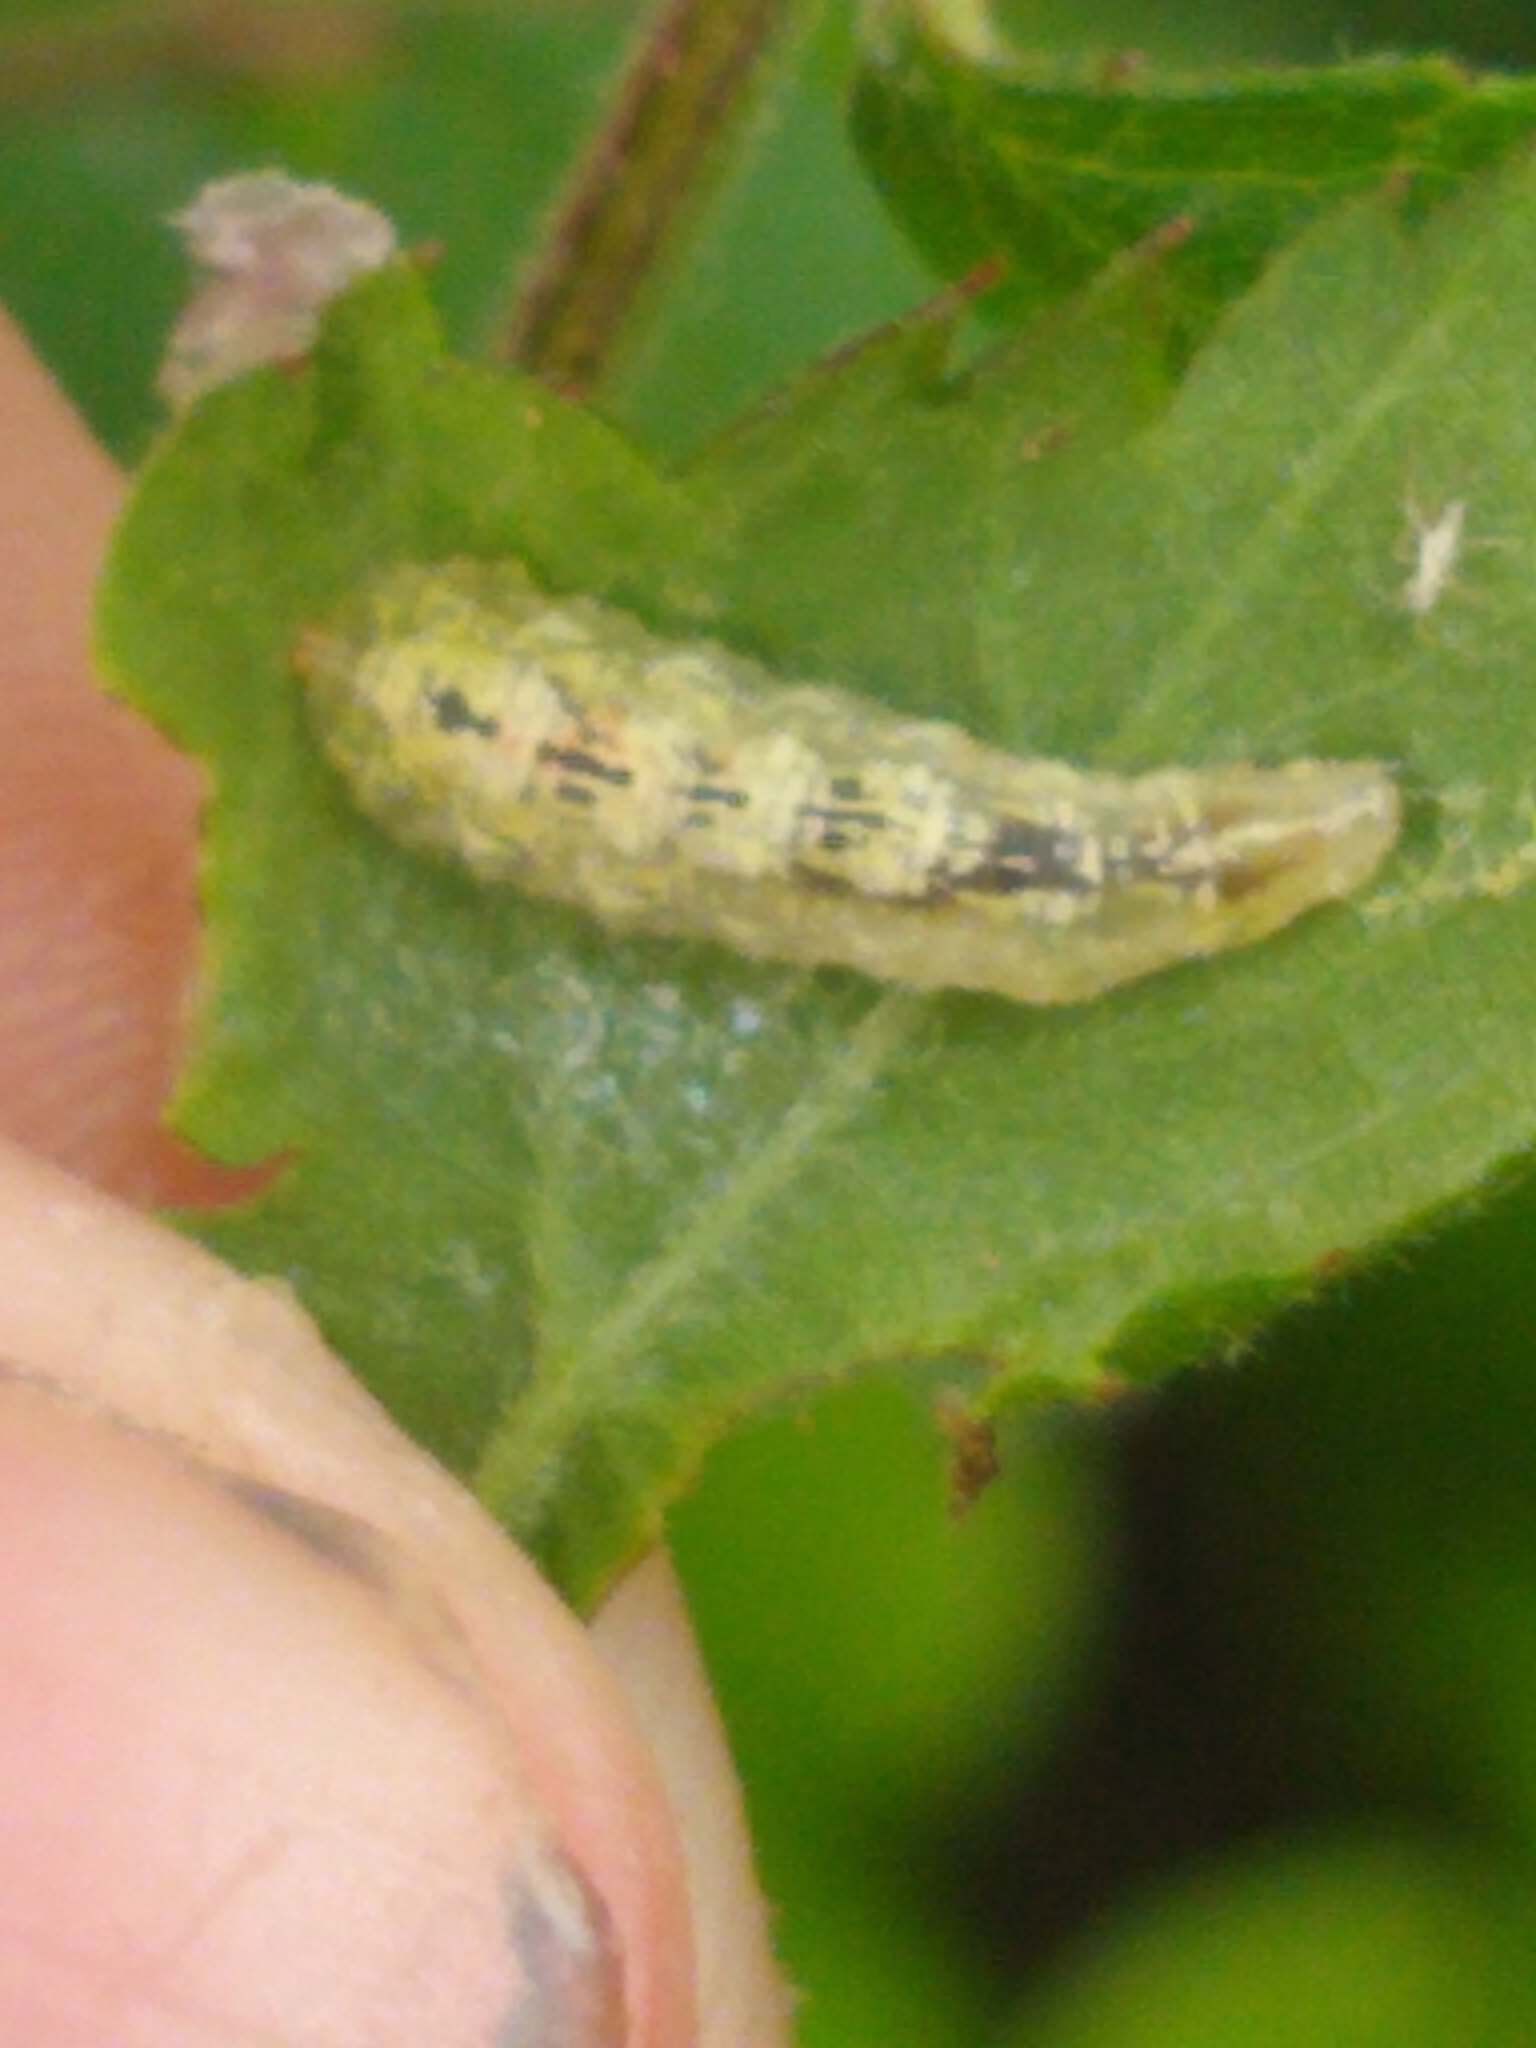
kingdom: Animalia
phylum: Arthropoda
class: Insecta
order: Diptera
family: Syrphidae
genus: Syrphus
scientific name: Syrphus
